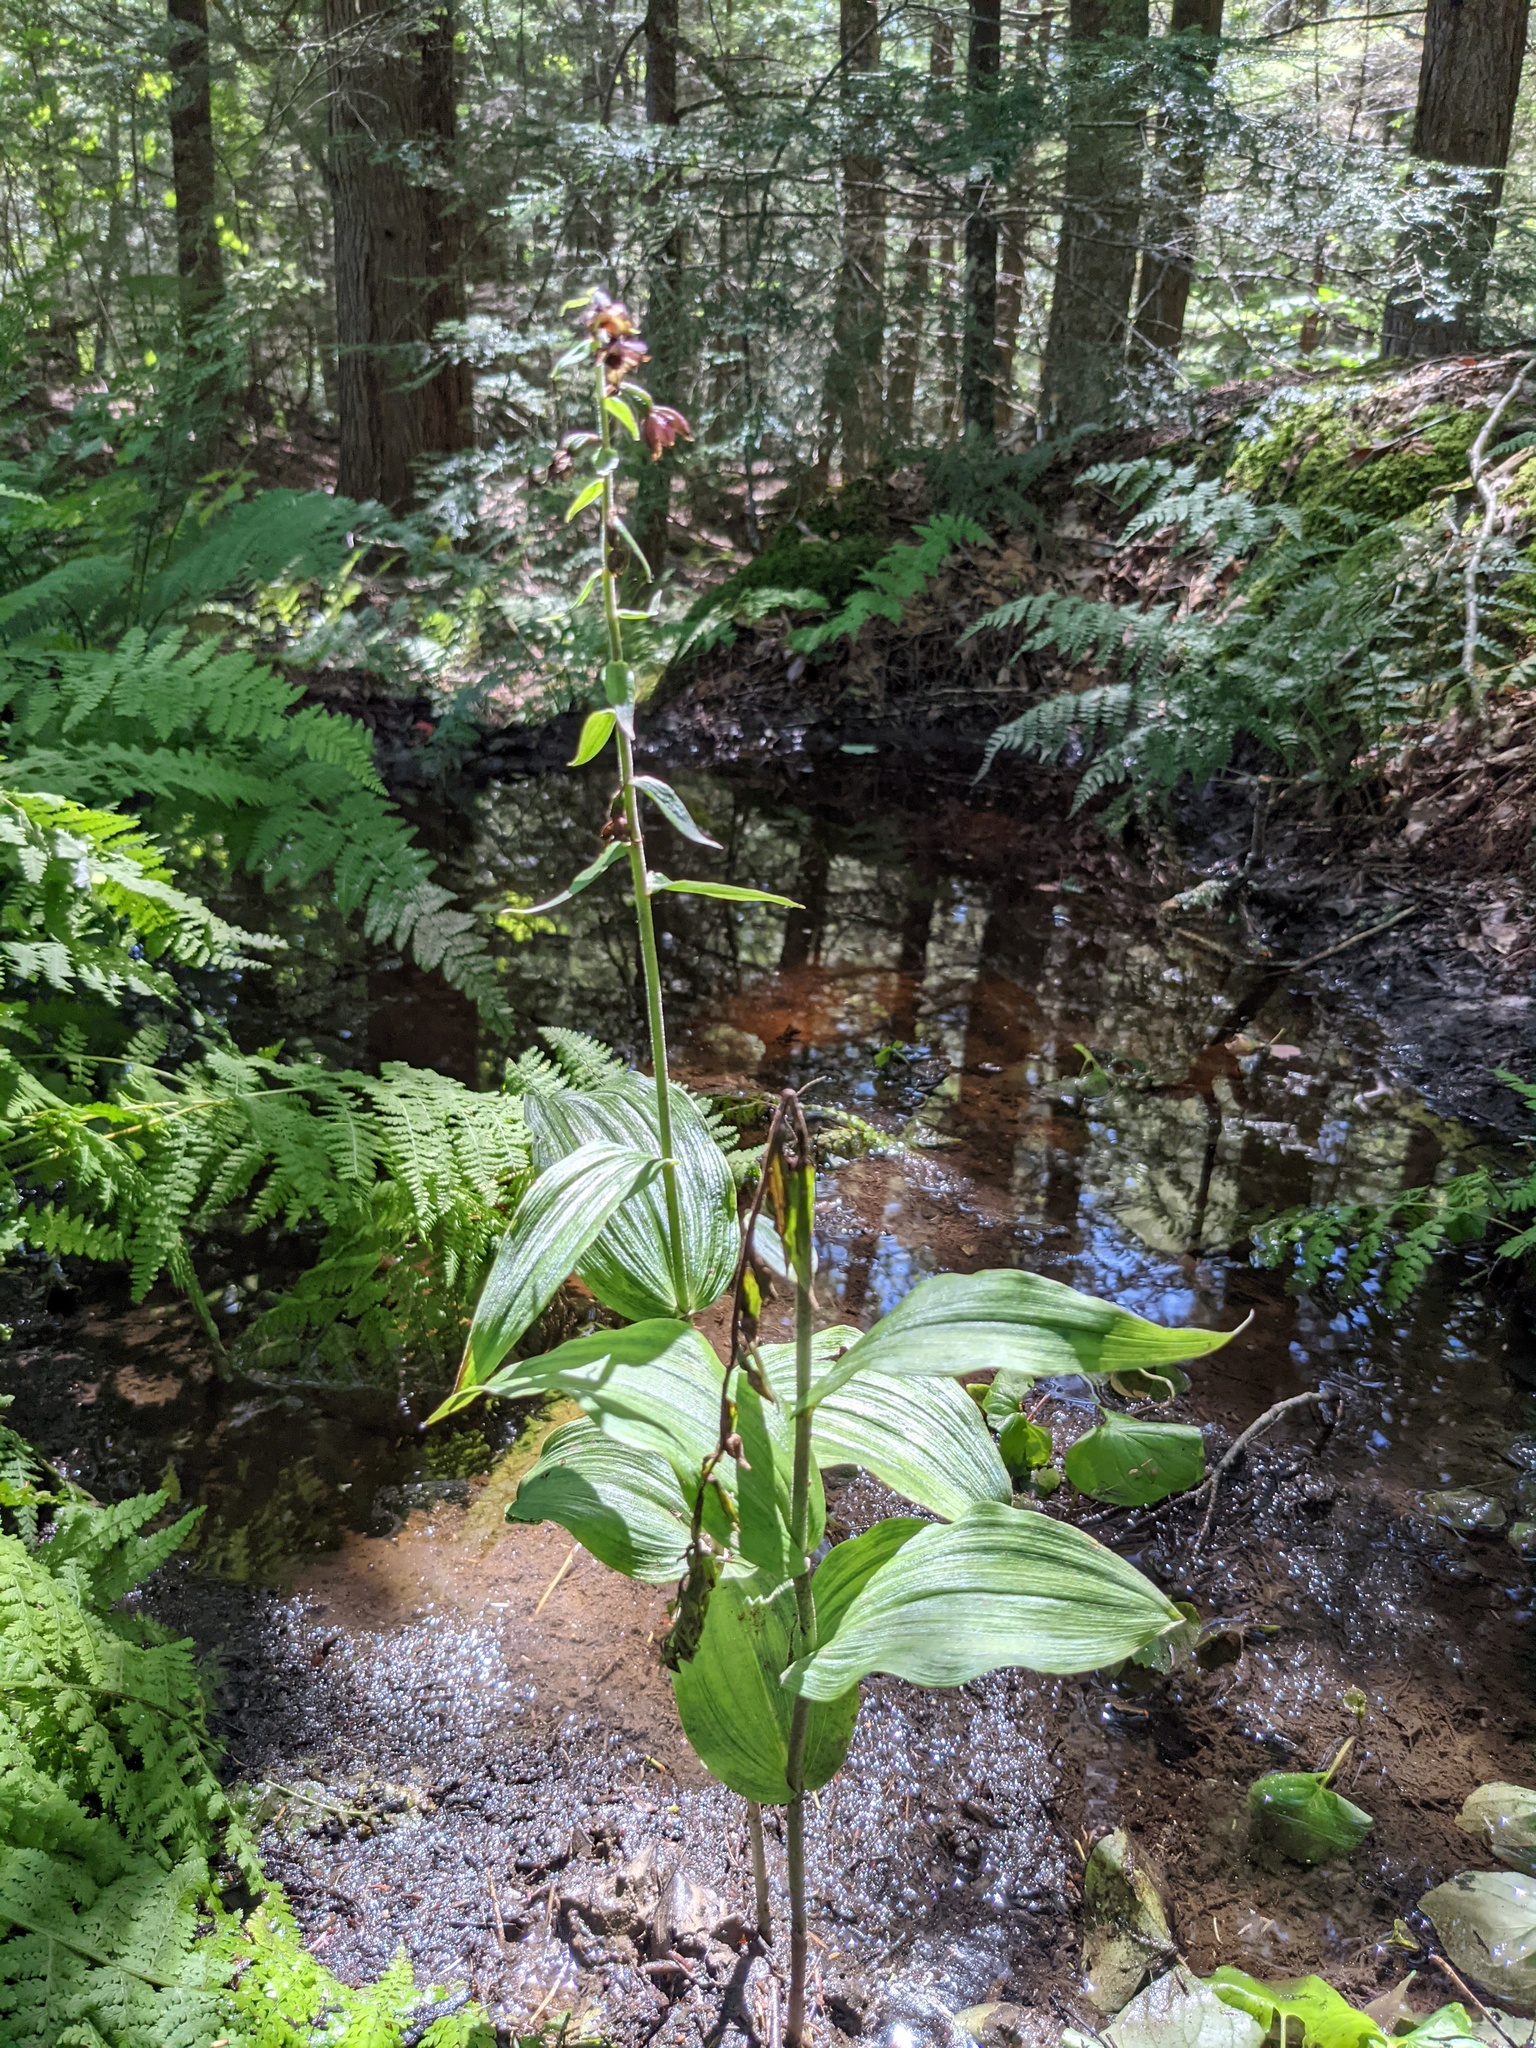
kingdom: Plantae
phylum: Tracheophyta
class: Liliopsida
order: Asparagales
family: Orchidaceae
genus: Epipactis
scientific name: Epipactis helleborine
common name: Broad-leaved helleborine
